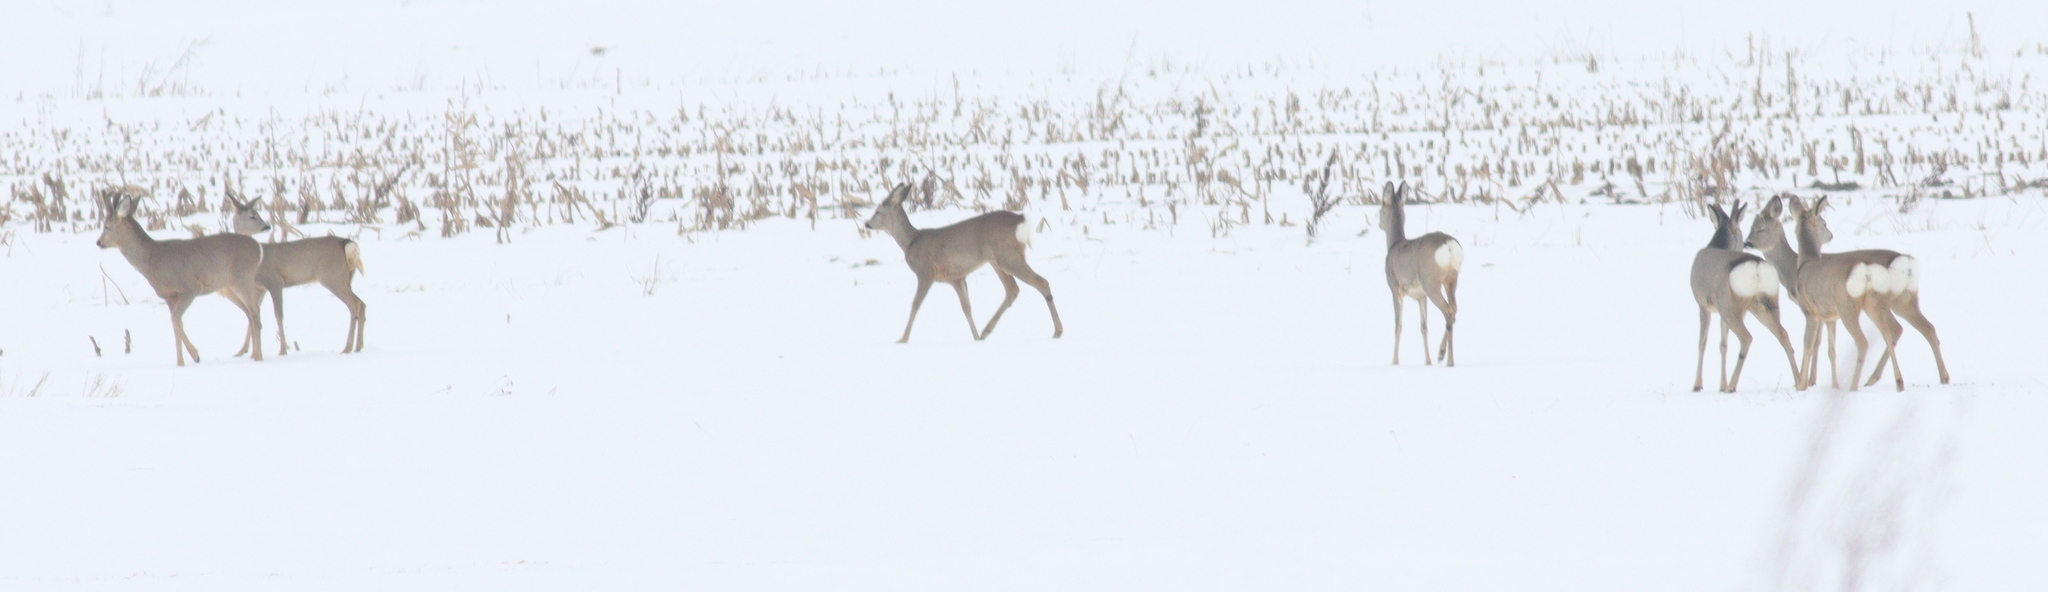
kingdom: Animalia
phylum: Chordata
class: Mammalia
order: Artiodactyla
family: Cervidae
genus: Capreolus
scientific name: Capreolus capreolus
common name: Western roe deer
